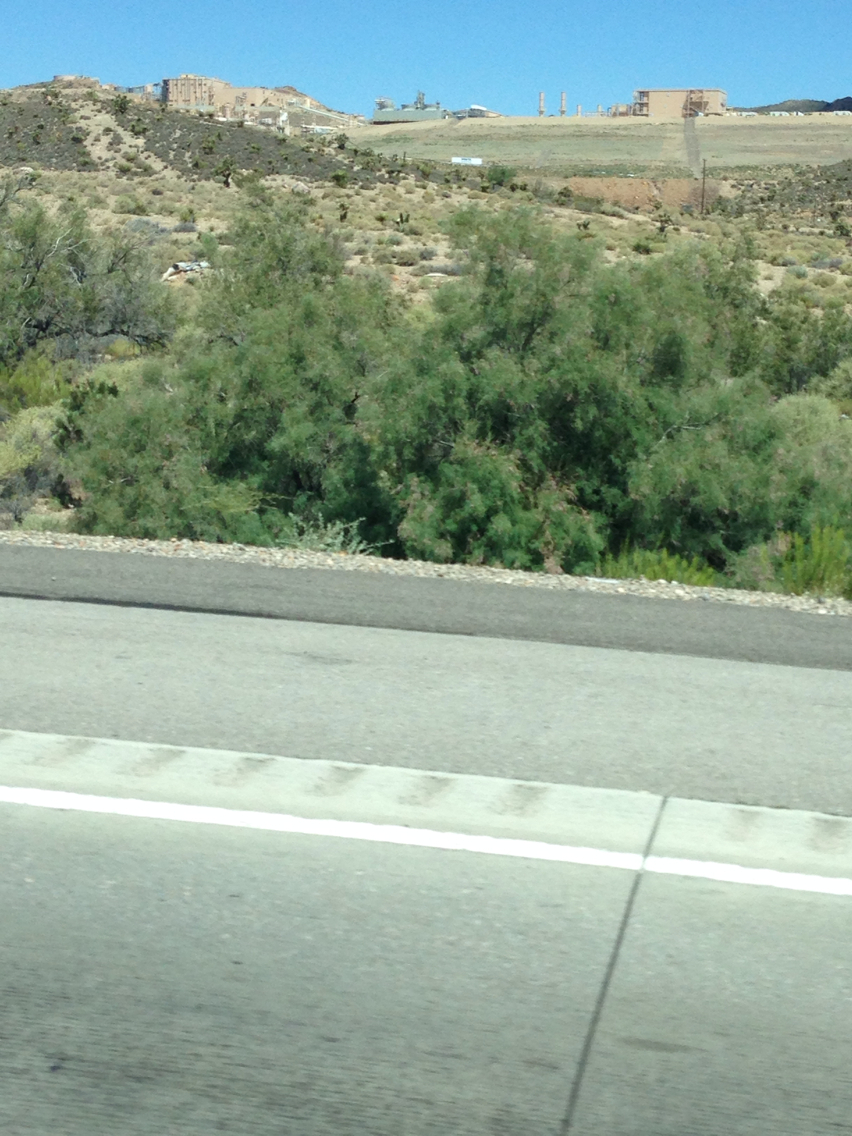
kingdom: Plantae
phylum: Tracheophyta
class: Magnoliopsida
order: Caryophyllales
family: Tamaricaceae
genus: Tamarix
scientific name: Tamarix
